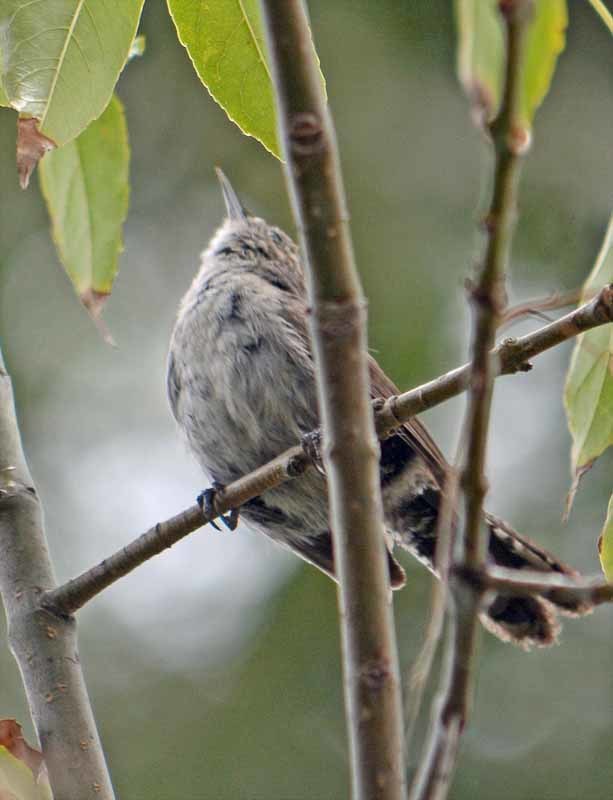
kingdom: Animalia
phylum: Chordata
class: Aves
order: Passeriformes
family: Troglodytidae
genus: Thryomanes
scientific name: Thryomanes bewickii
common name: Bewick's wren
